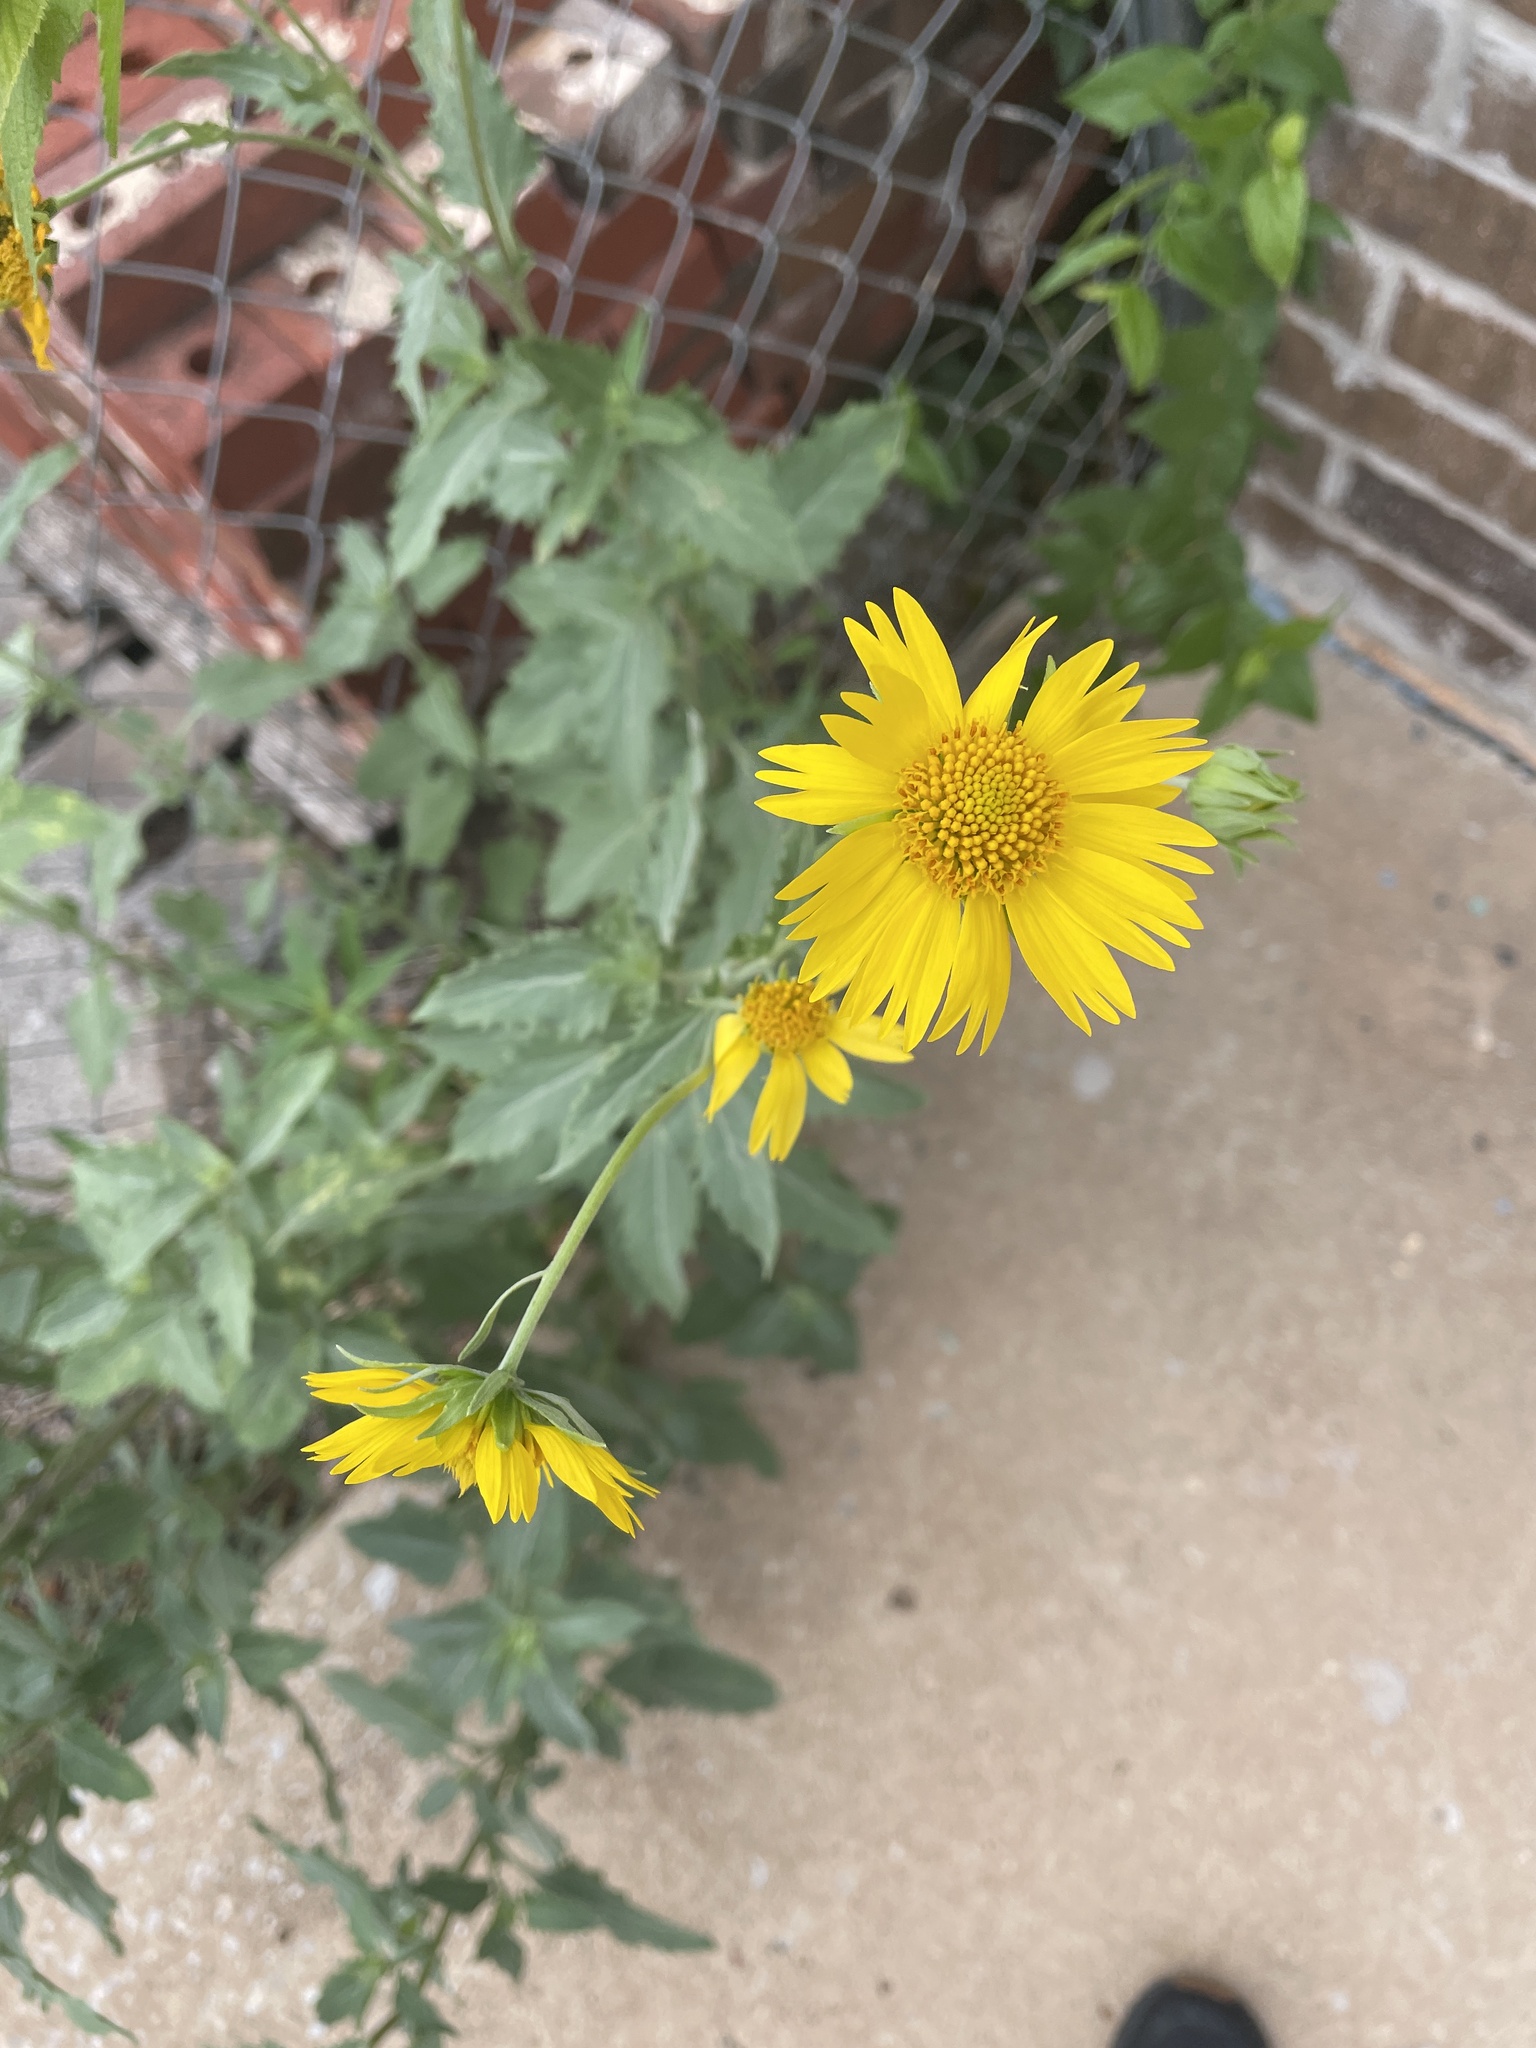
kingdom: Plantae
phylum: Tracheophyta
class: Magnoliopsida
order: Asterales
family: Asteraceae
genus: Verbesina
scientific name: Verbesina encelioides
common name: Golden crownbeard
